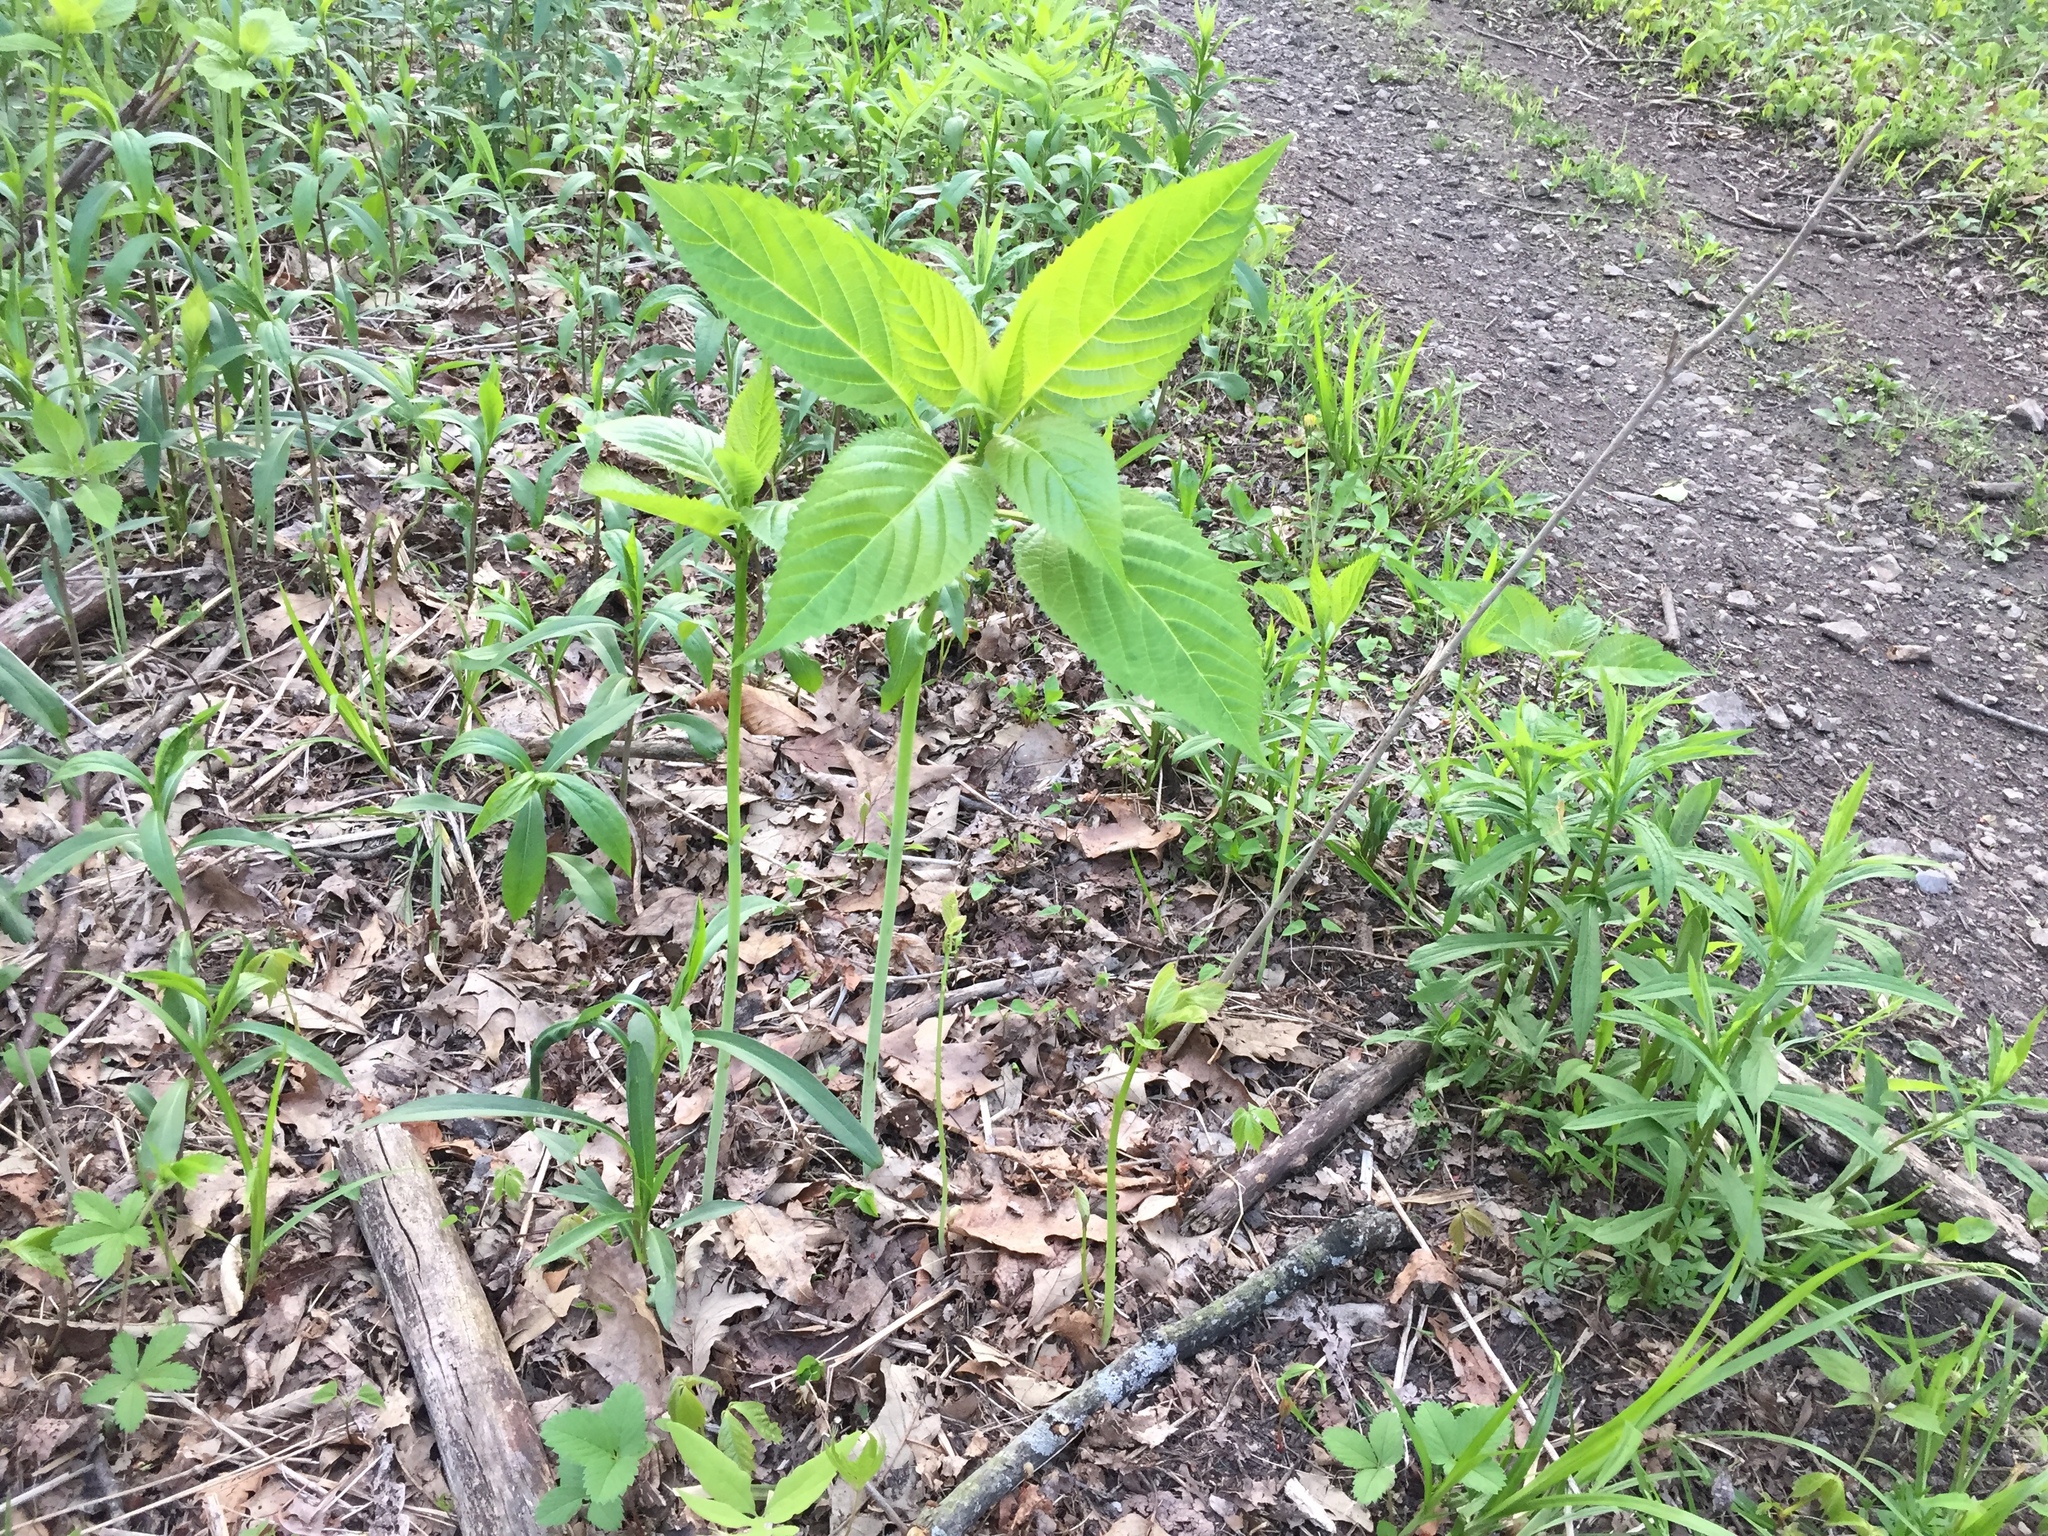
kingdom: Plantae
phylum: Tracheophyta
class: Magnoliopsida
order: Lamiales
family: Lamiaceae
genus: Collinsonia
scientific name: Collinsonia canadensis
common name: Northern horsebalm
